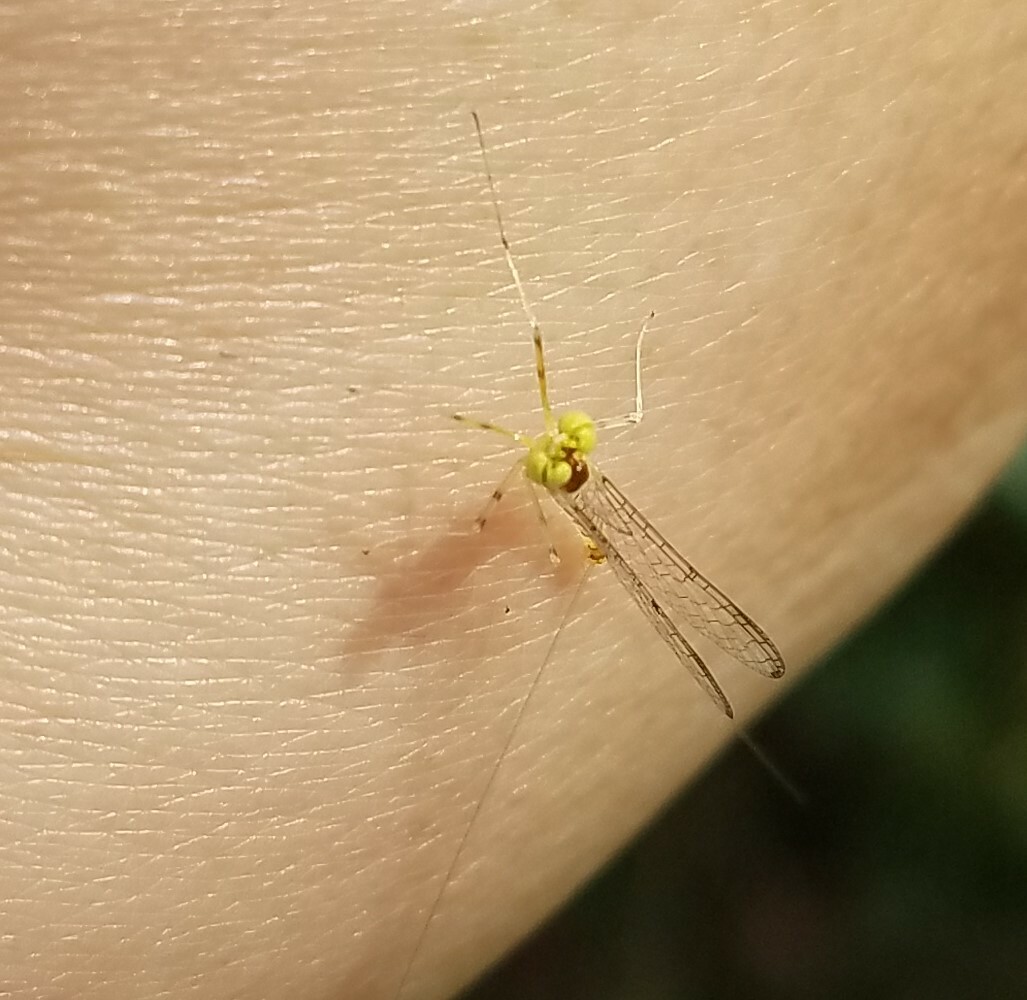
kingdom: Animalia
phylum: Arthropoda
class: Insecta
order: Ephemeroptera
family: Heptageniidae
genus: Stenacron
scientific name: Stenacron interpunctatum
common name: Orange cahill
